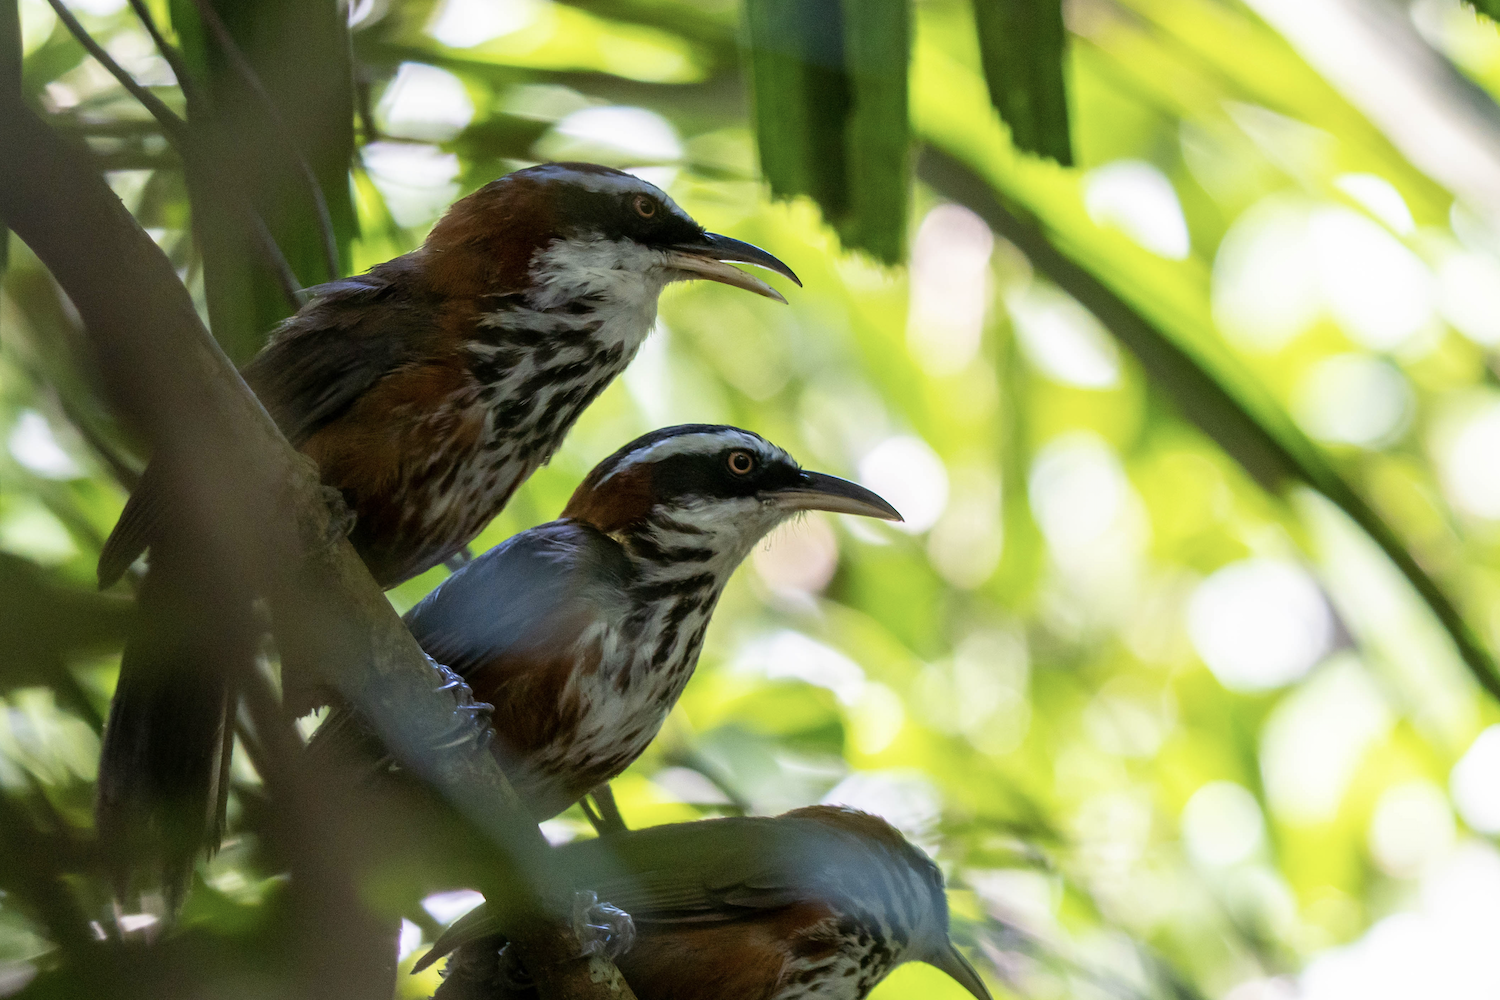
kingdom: Animalia
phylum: Chordata
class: Aves
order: Passeriformes
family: Timaliidae
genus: Pomatorhinus
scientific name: Pomatorhinus musicus
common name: Taiwan scimitar-babbler
